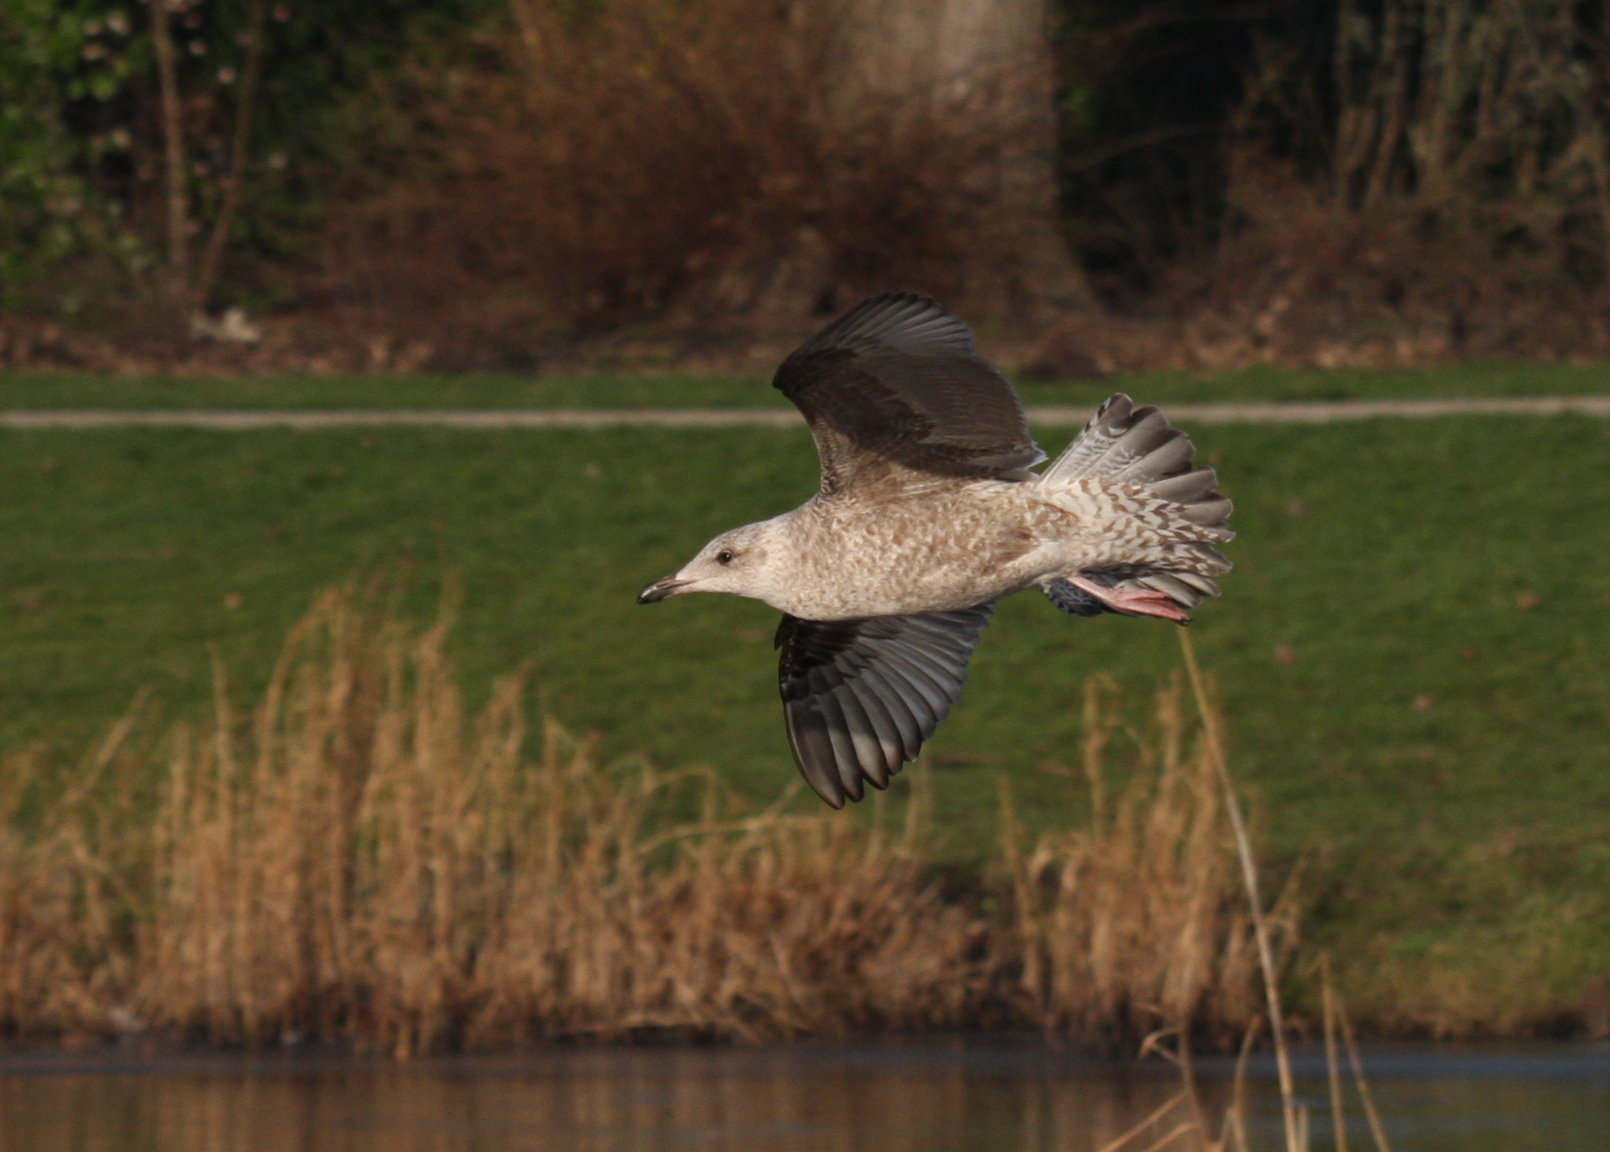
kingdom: Animalia
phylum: Chordata
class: Aves
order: Charadriiformes
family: Laridae
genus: Larus
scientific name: Larus argentatus
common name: Herring gull
